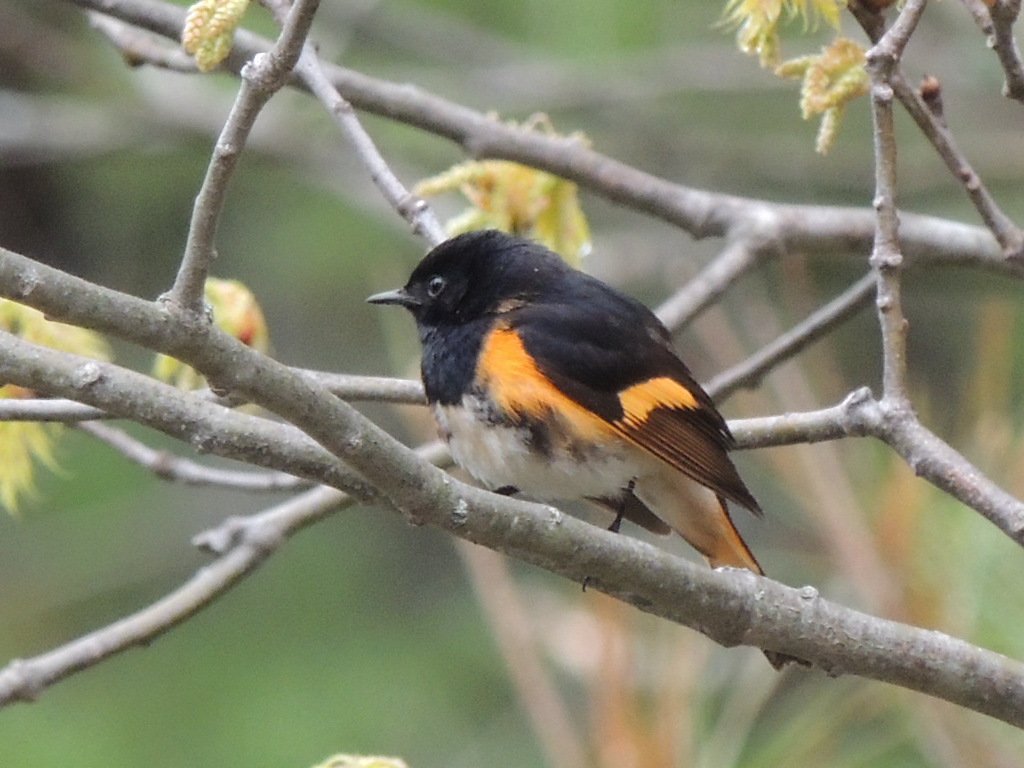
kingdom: Animalia
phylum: Chordata
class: Aves
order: Passeriformes
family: Parulidae
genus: Setophaga
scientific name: Setophaga ruticilla
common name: American redstart
